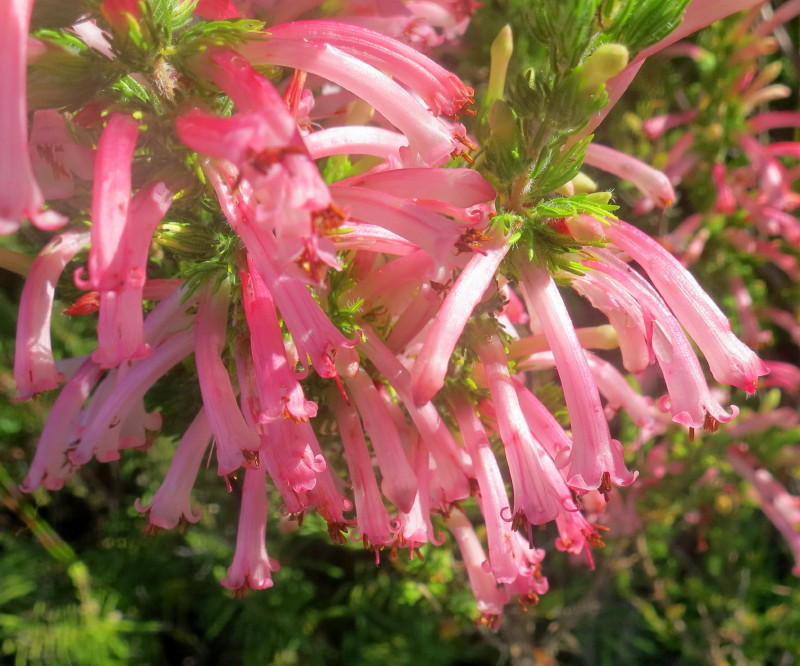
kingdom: Plantae
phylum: Tracheophyta
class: Magnoliopsida
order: Ericales
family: Ericaceae
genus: Erica
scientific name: Erica curviflora
